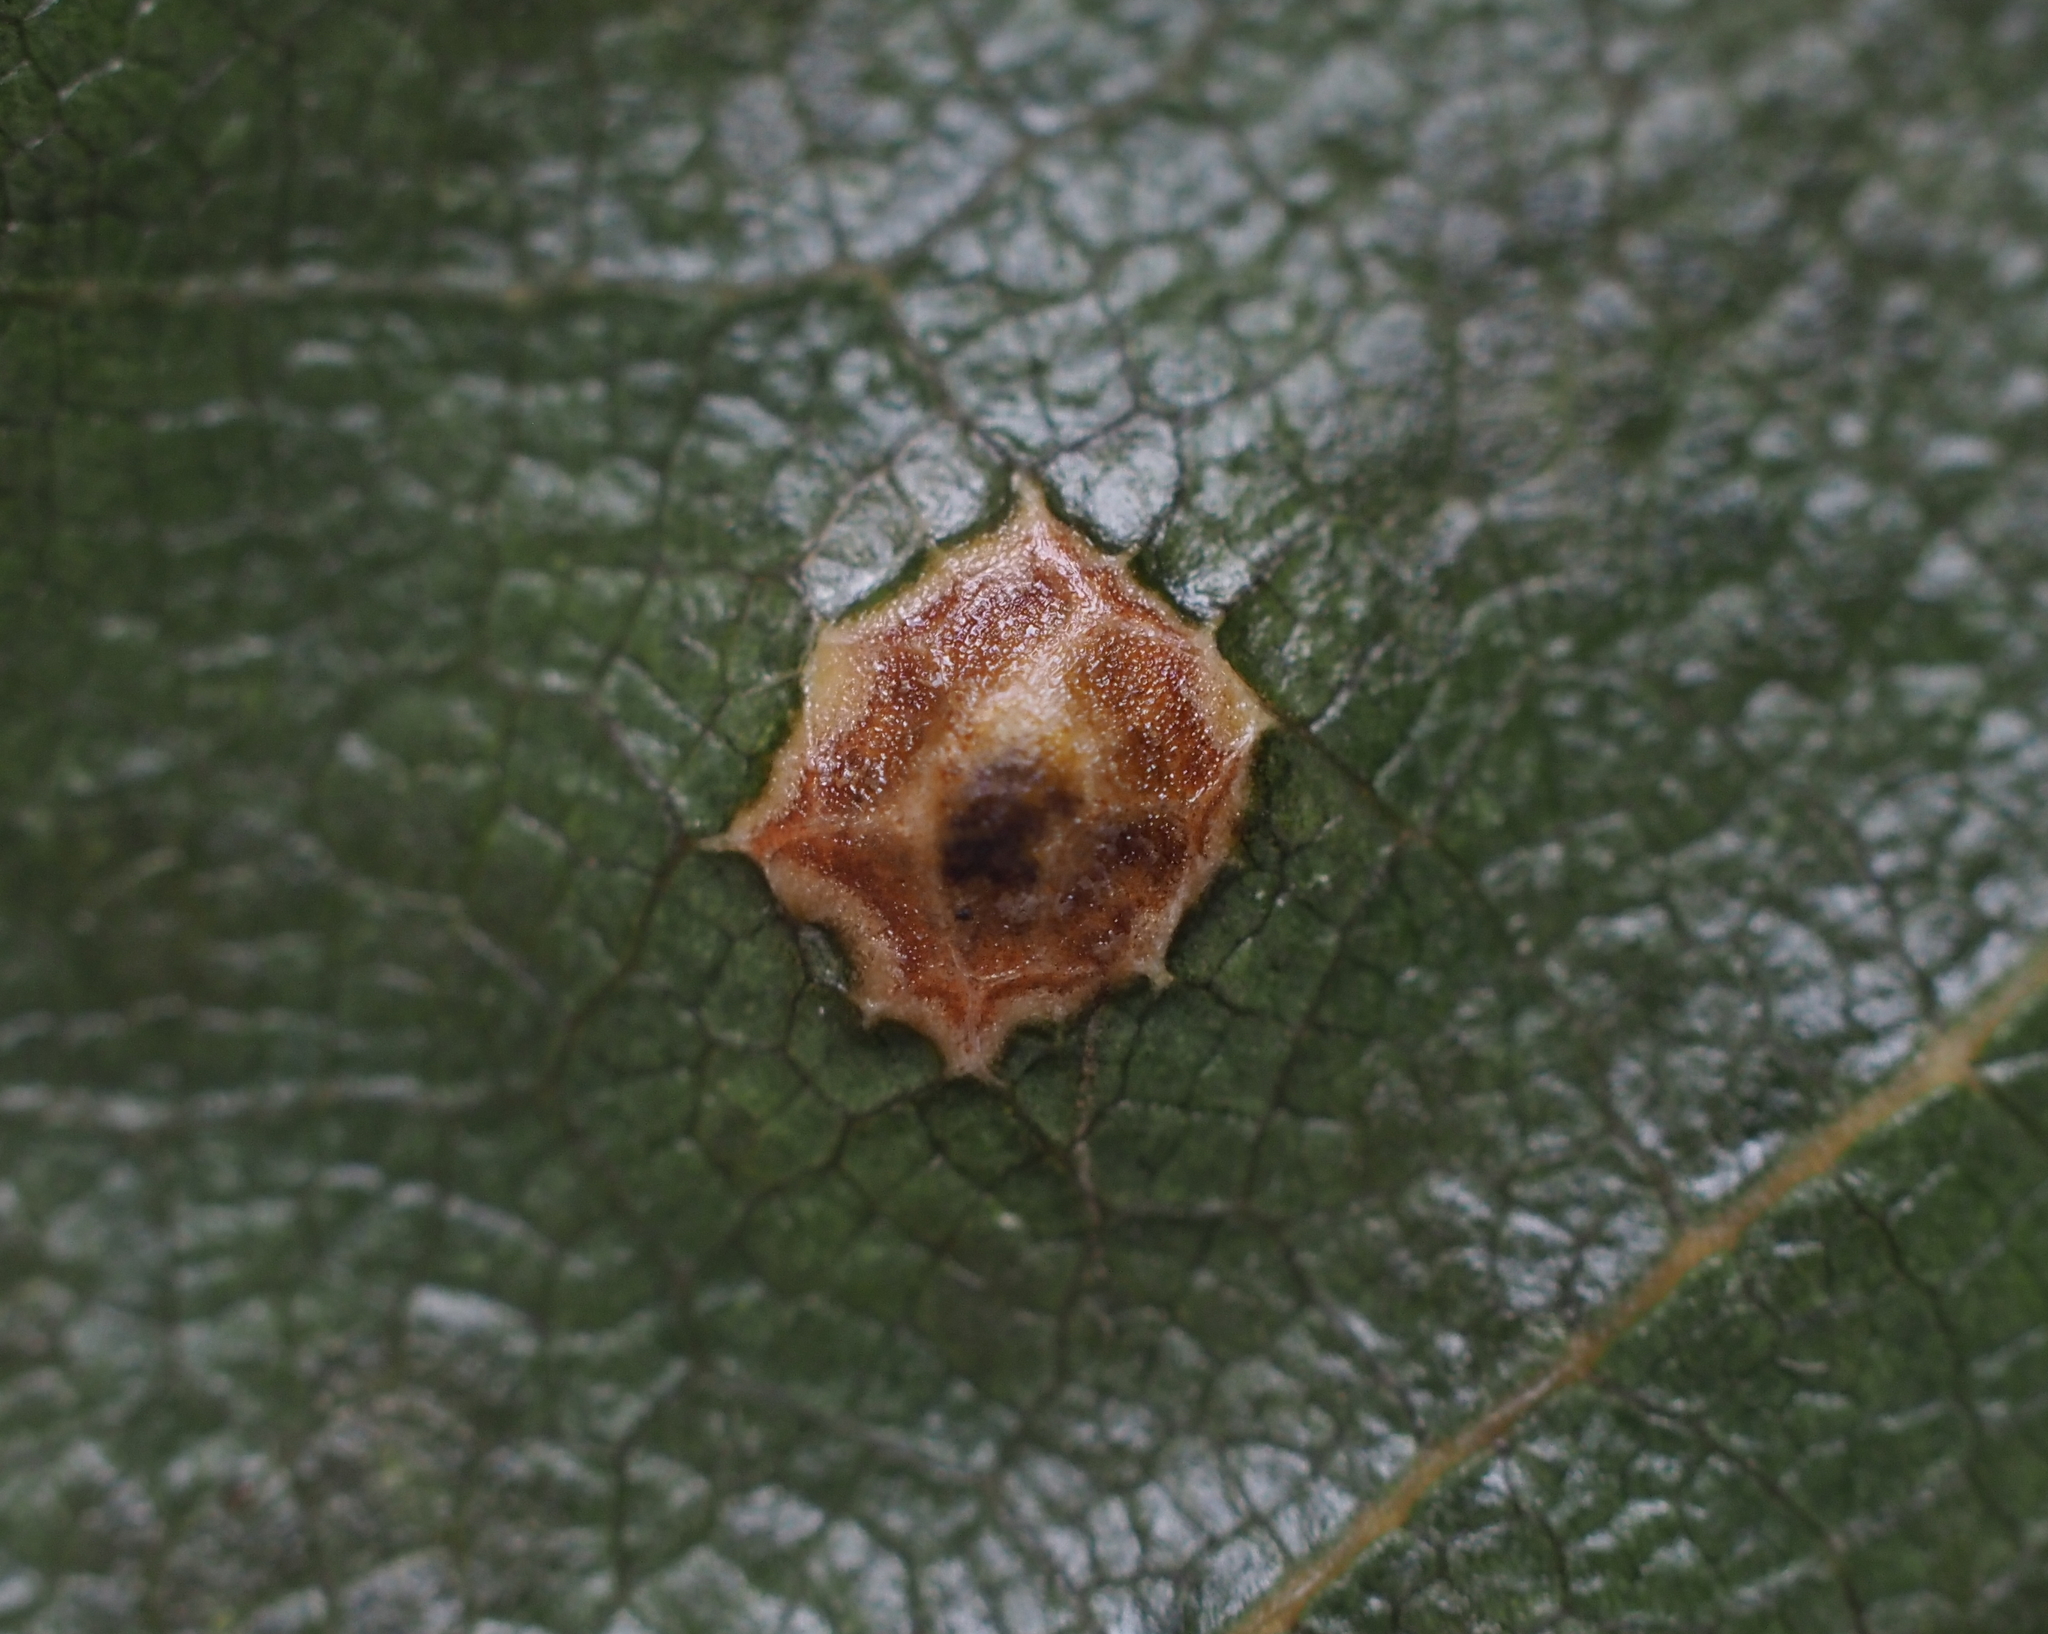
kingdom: Animalia
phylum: Arthropoda
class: Insecta
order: Diptera
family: Cecidomyiidae
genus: Polystepha
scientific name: Polystepha globosa
